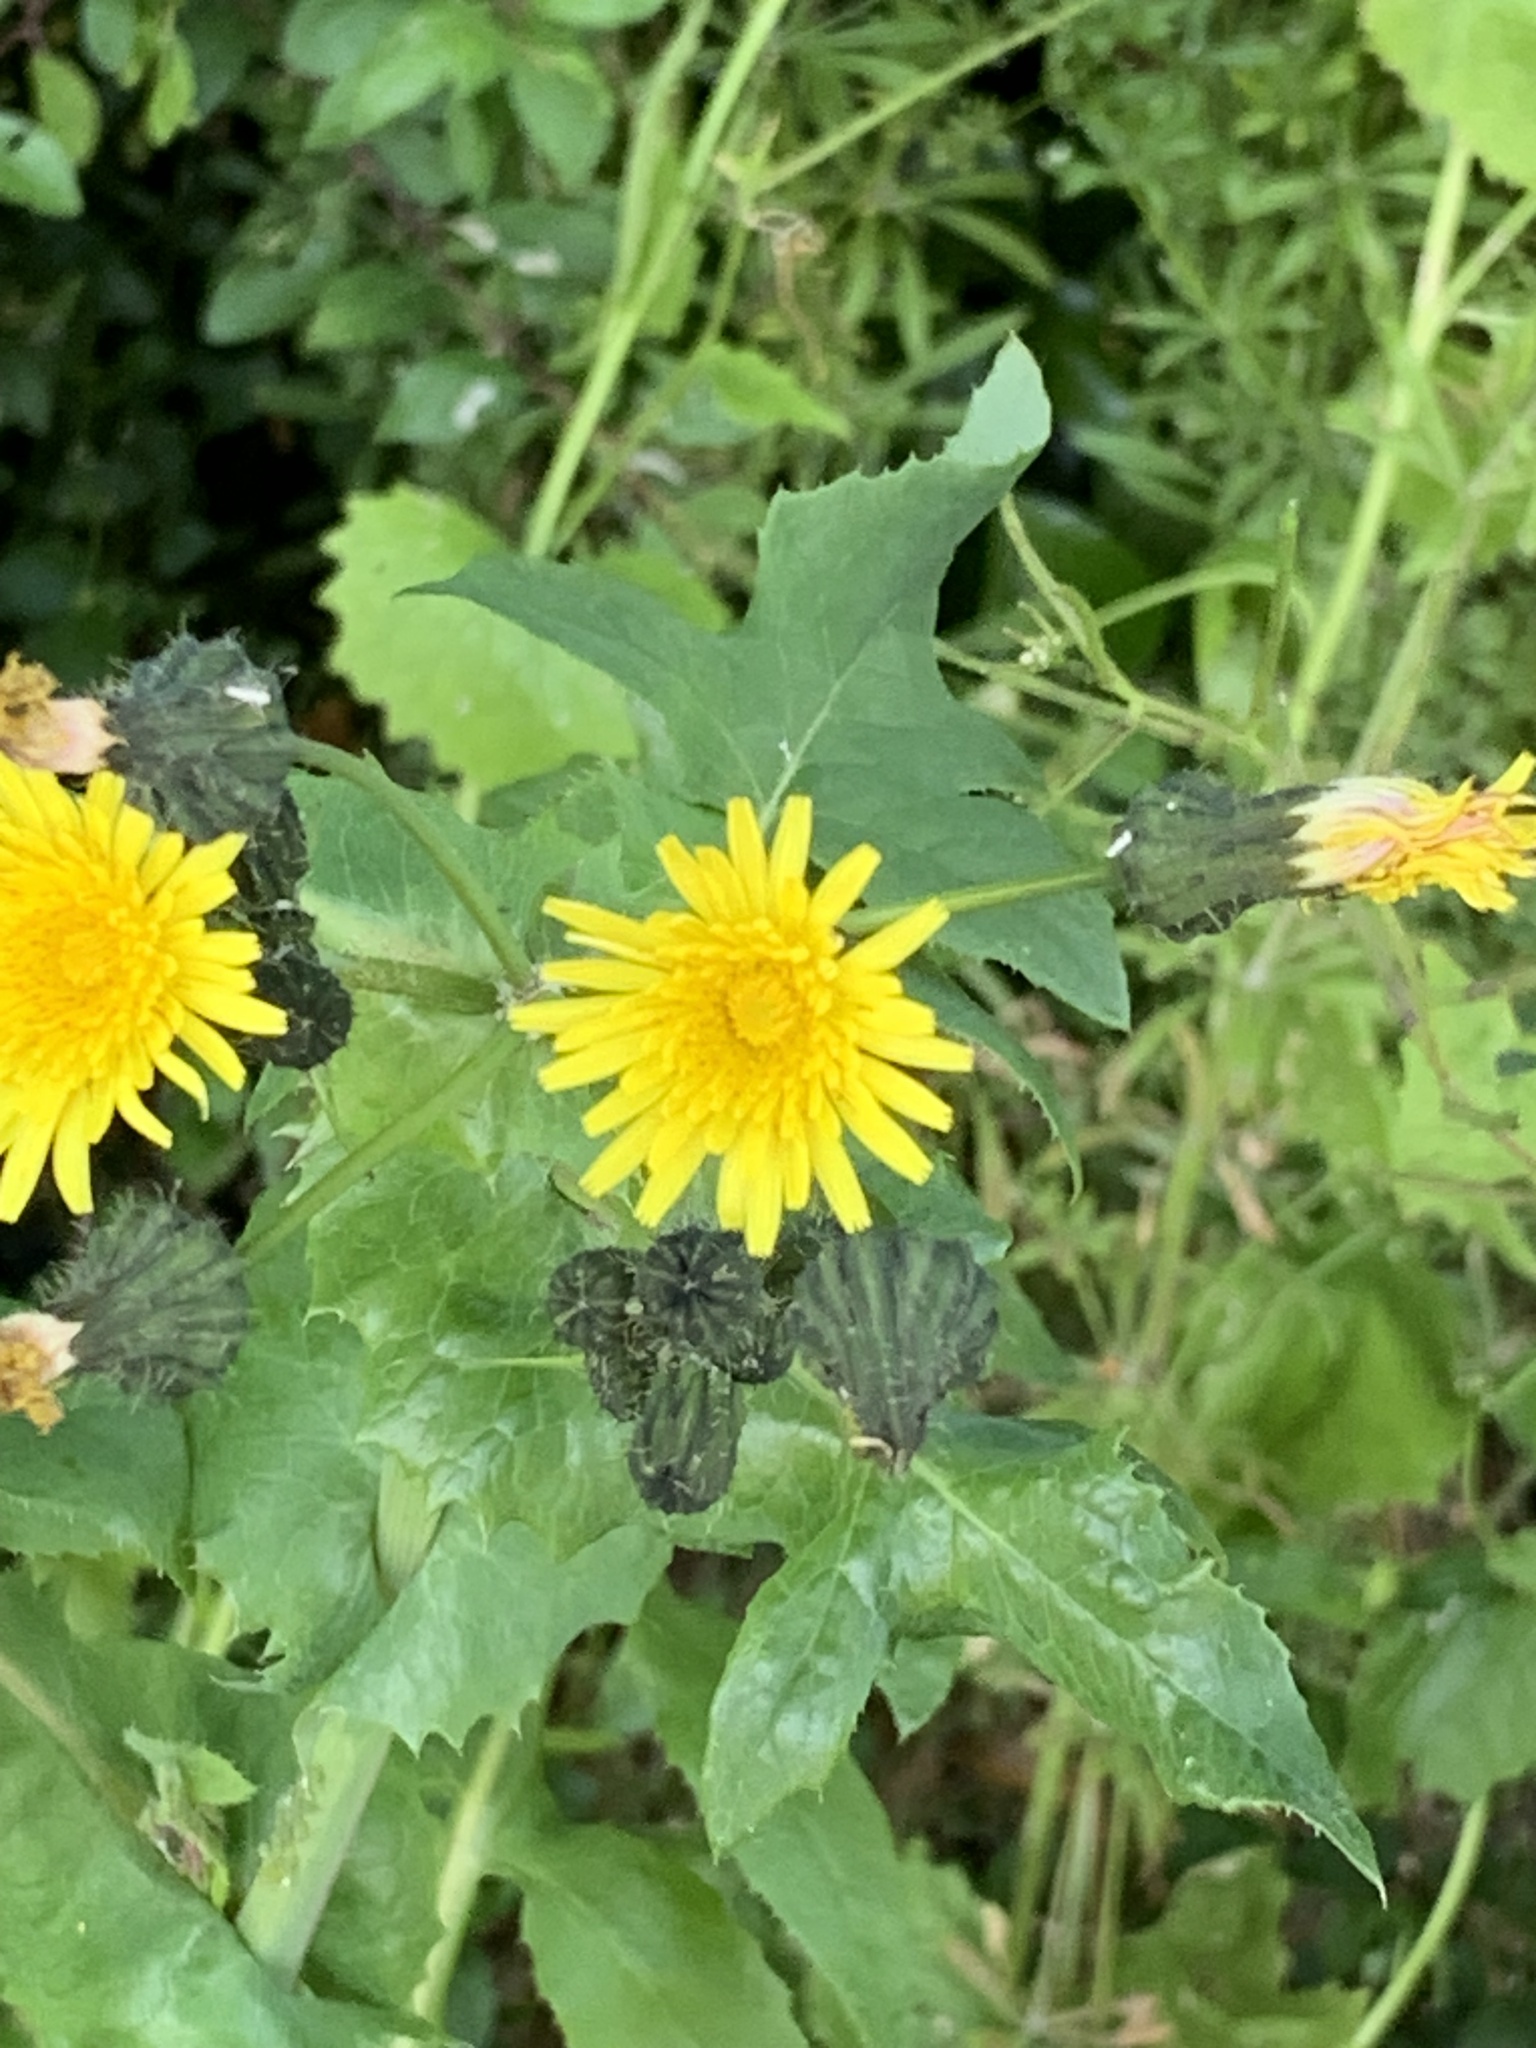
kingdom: Plantae
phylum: Tracheophyta
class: Magnoliopsida
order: Asterales
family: Asteraceae
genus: Sonchus
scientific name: Sonchus oleraceus
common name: Common sowthistle
